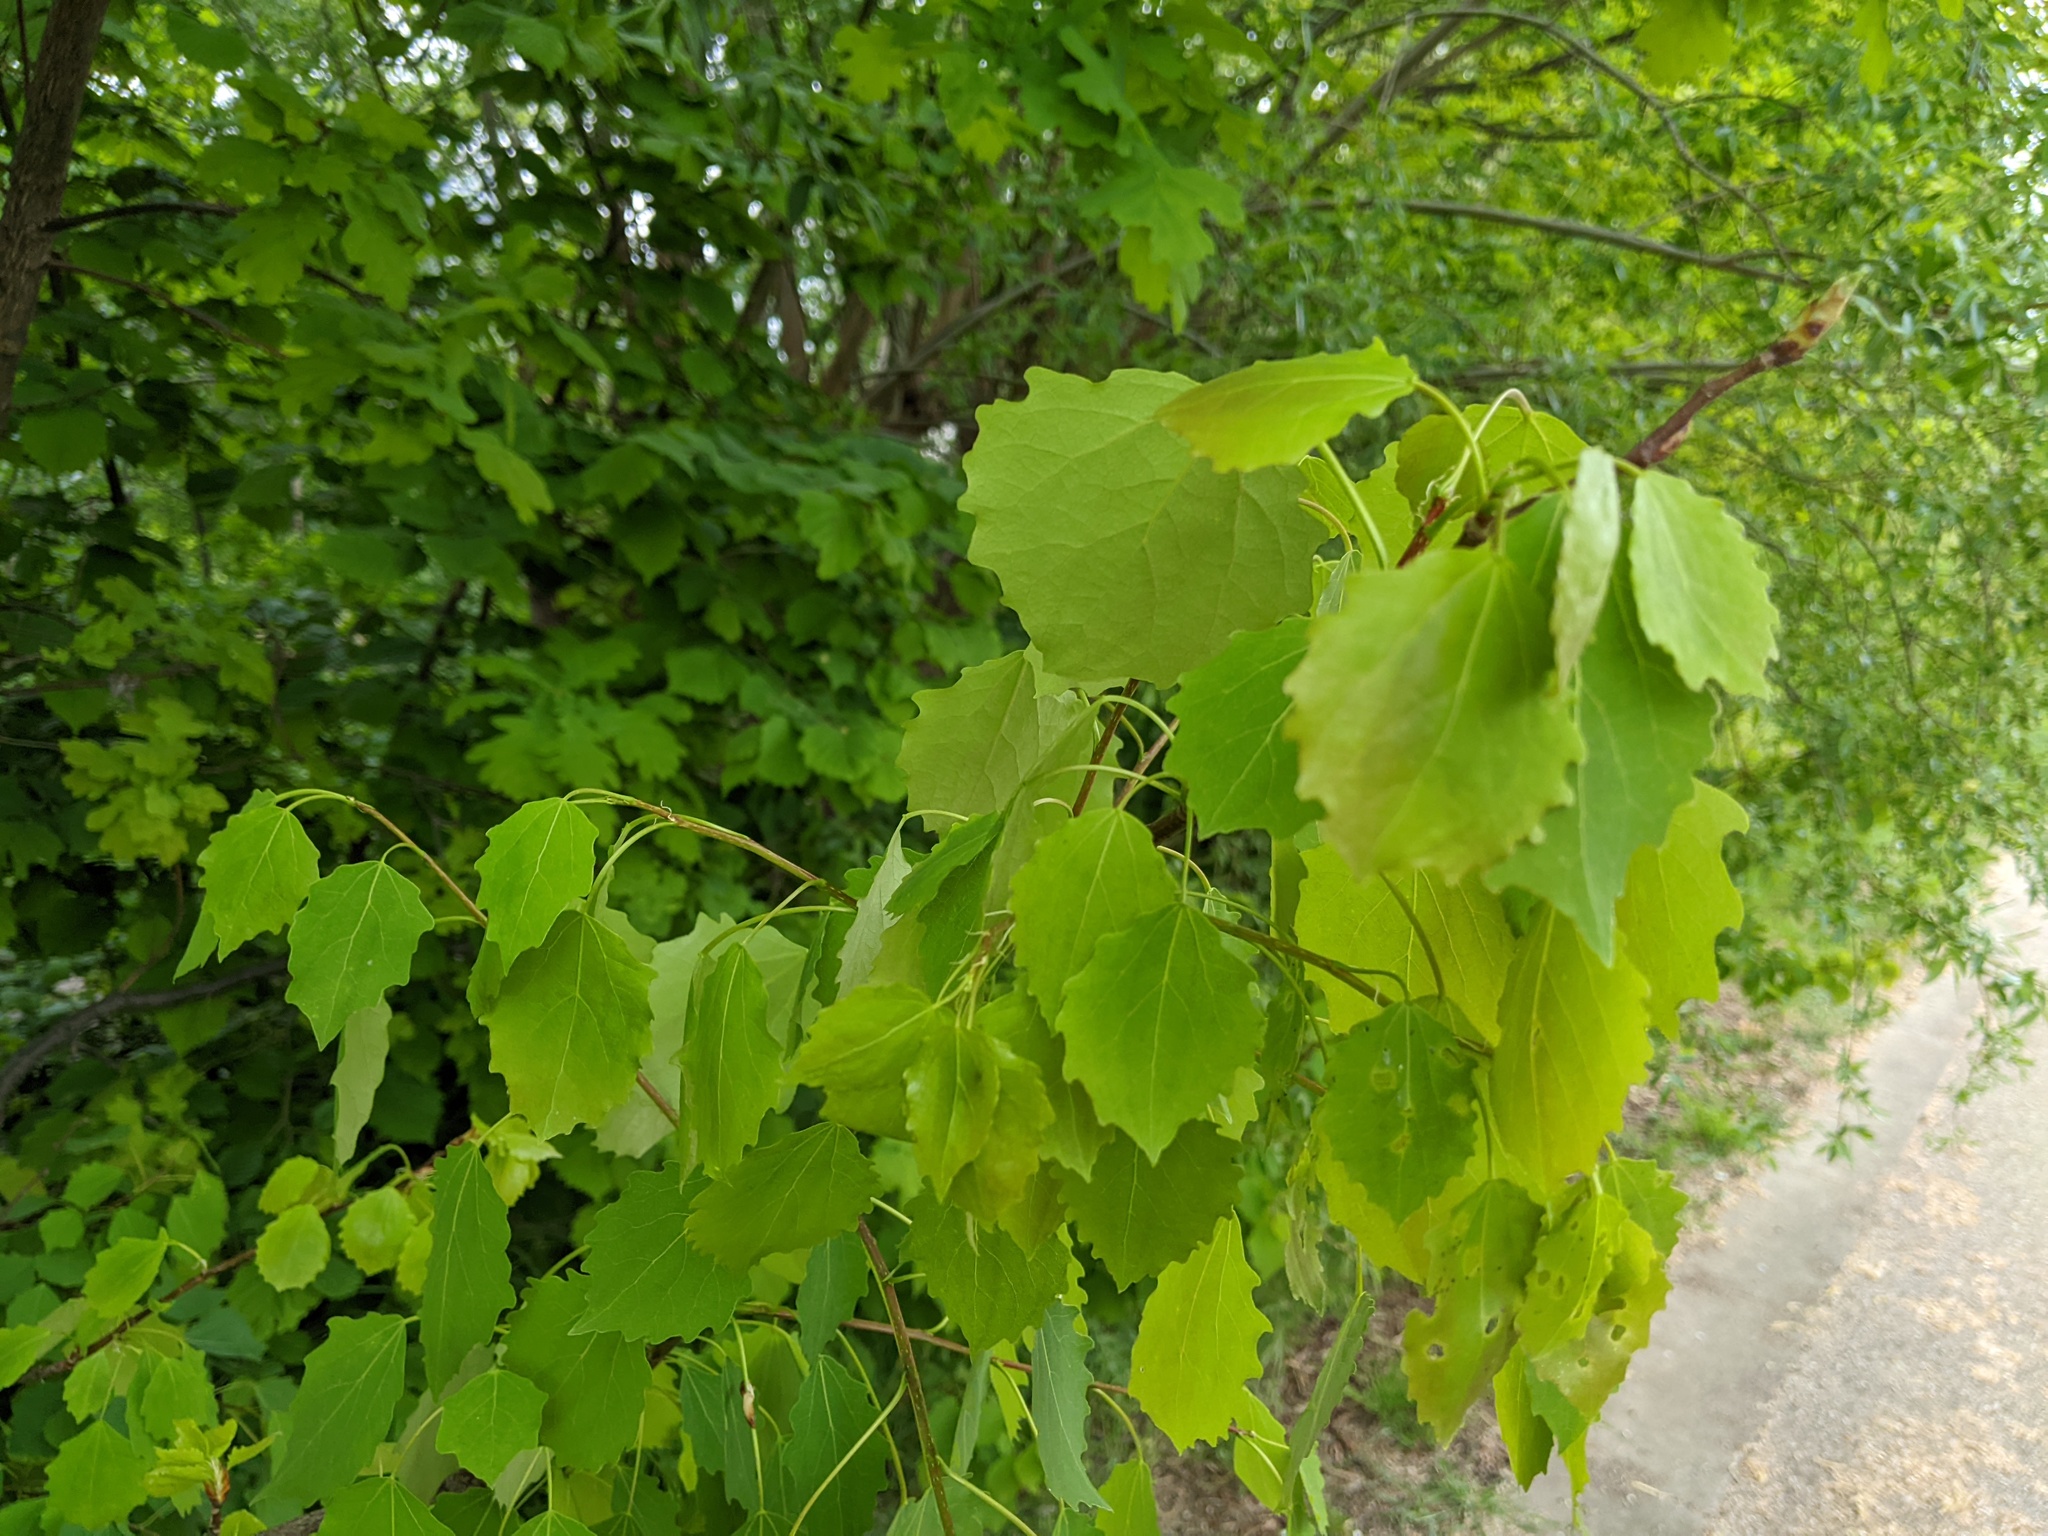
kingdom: Plantae
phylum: Tracheophyta
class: Magnoliopsida
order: Malpighiales
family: Salicaceae
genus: Populus
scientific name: Populus tremula
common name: European aspen
